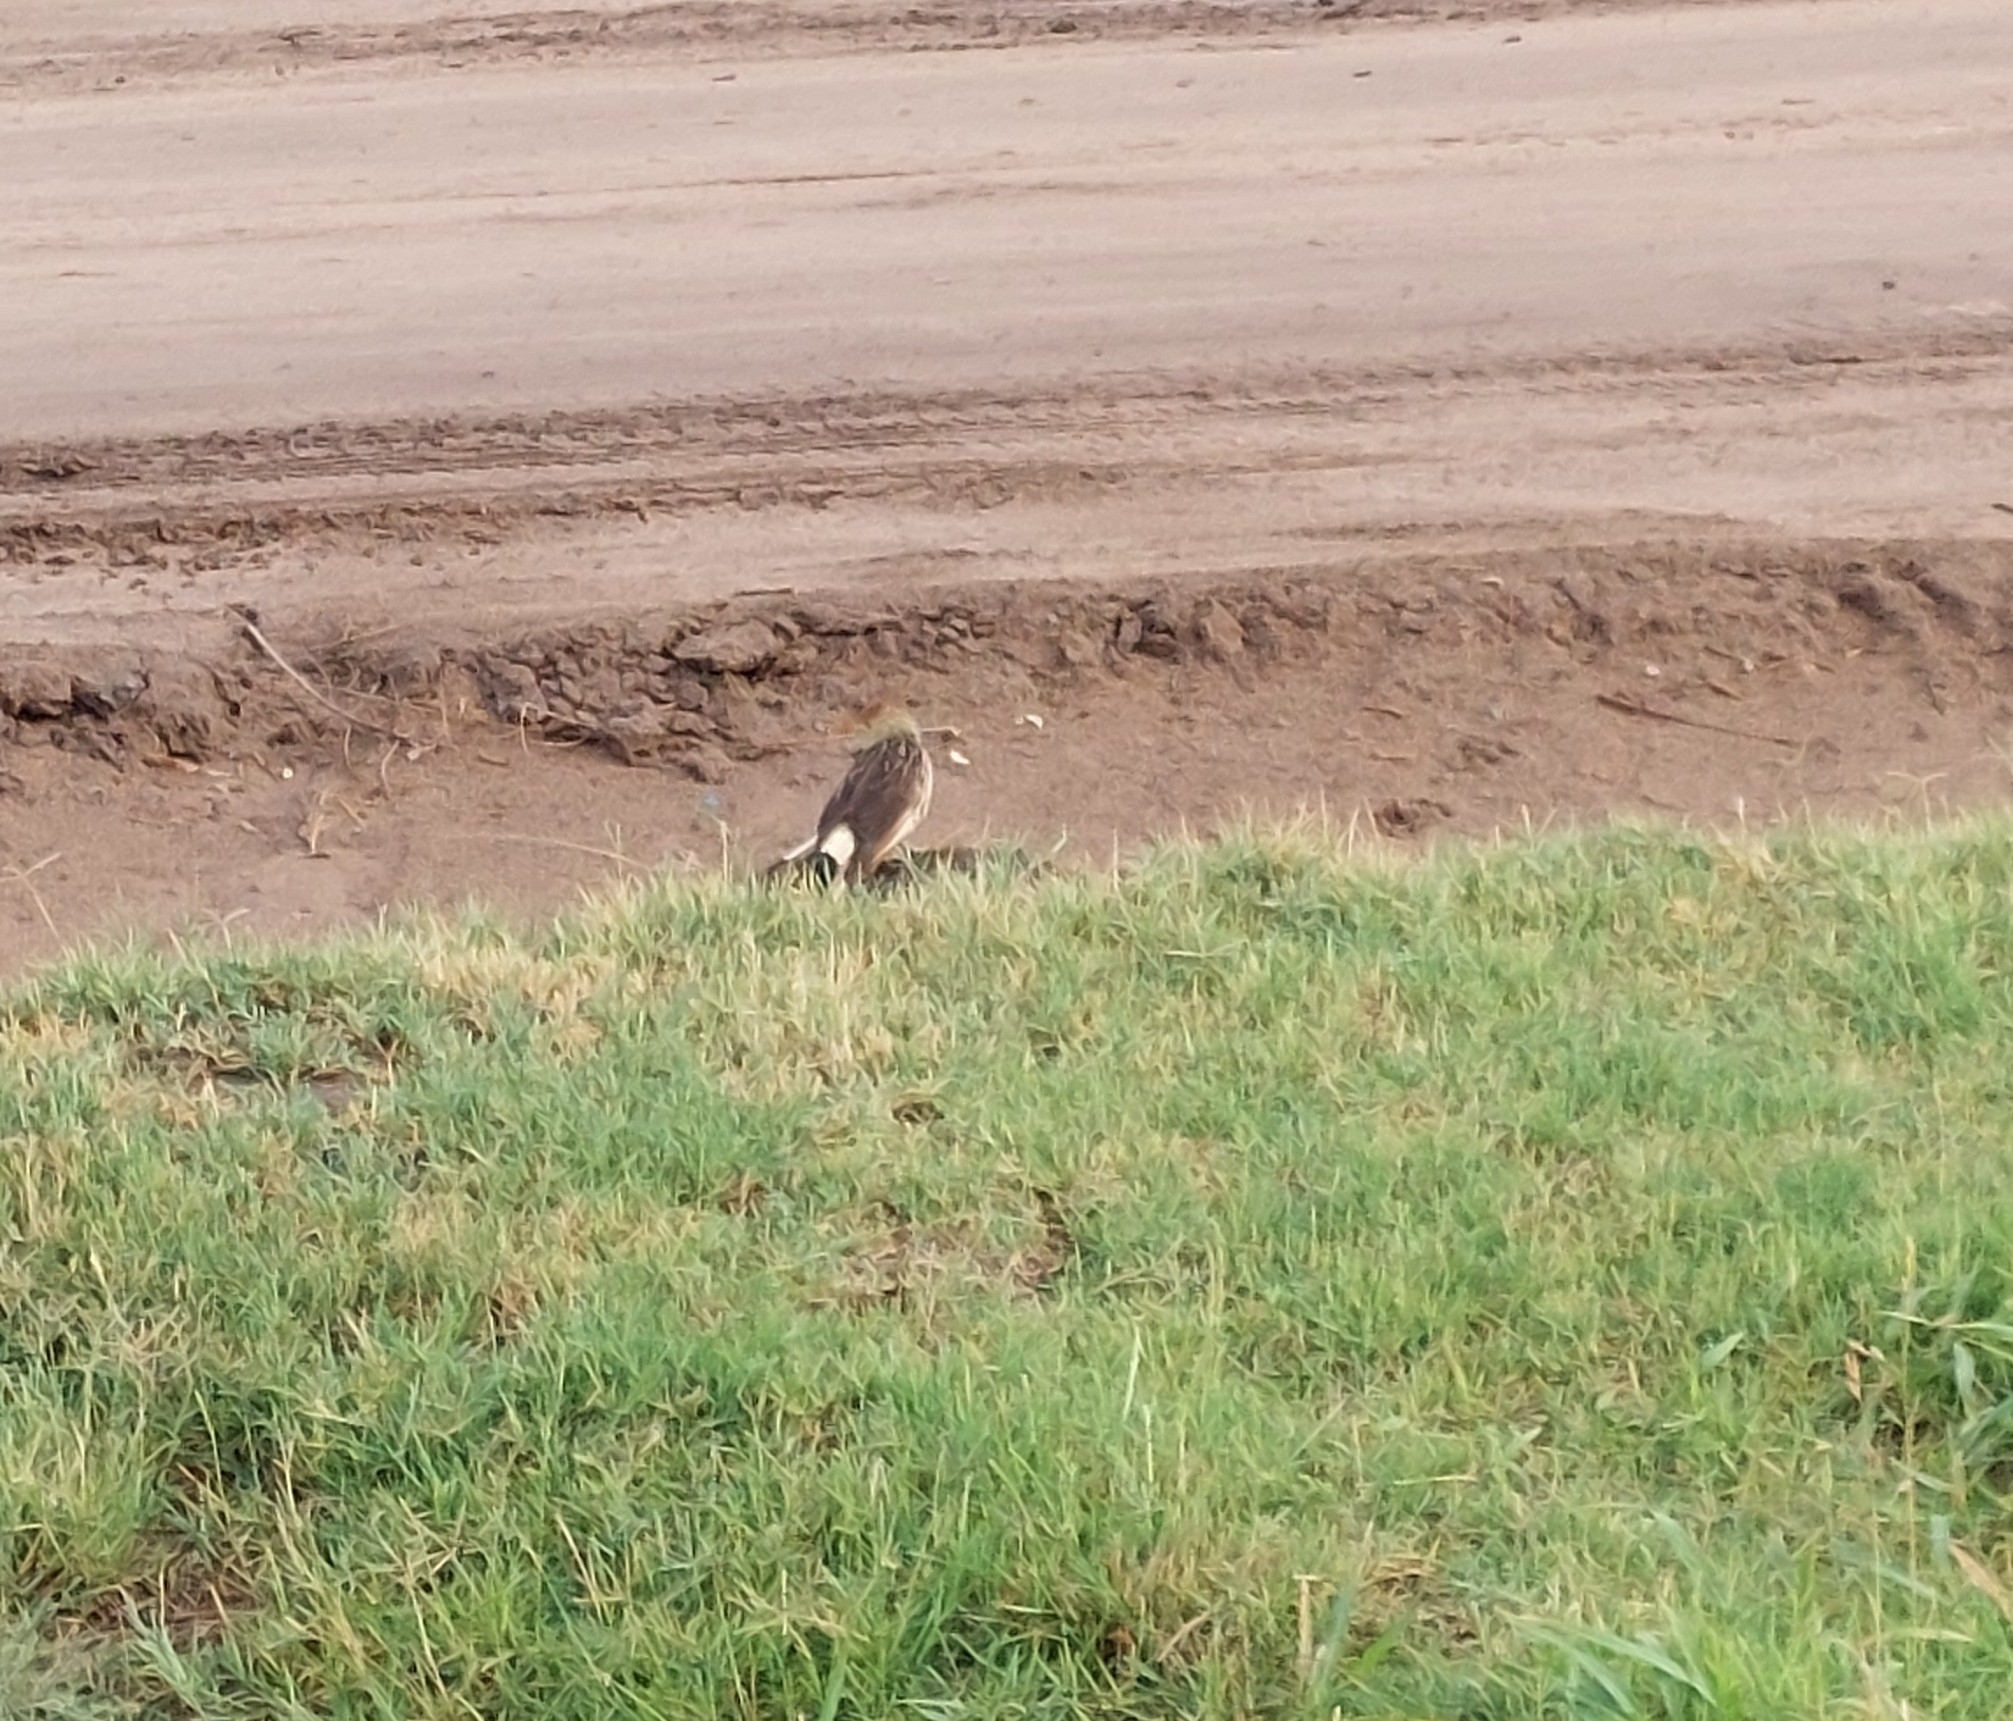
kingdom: Animalia
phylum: Chordata
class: Aves
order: Cuculiformes
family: Cuculidae
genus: Guira
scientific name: Guira guira
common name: Guira cuckoo
